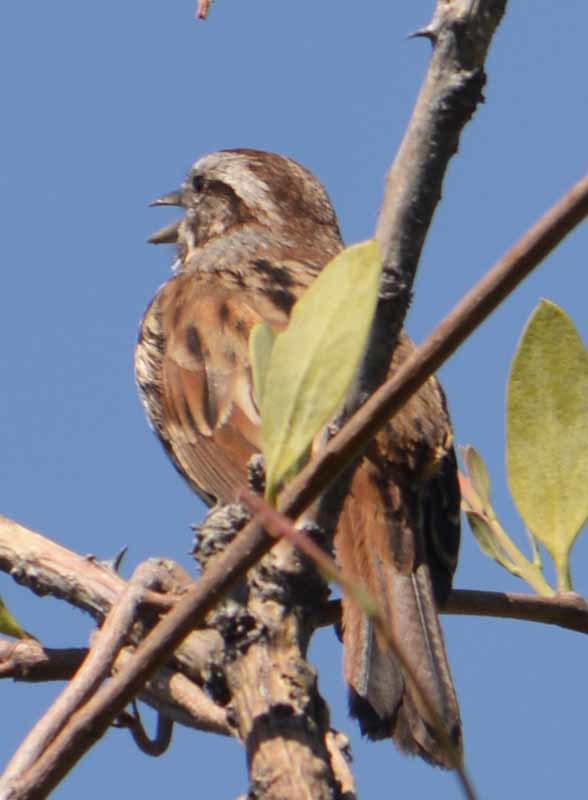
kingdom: Animalia
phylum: Chordata
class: Aves
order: Passeriformes
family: Passerellidae
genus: Melospiza
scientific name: Melospiza melodia
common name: Song sparrow
